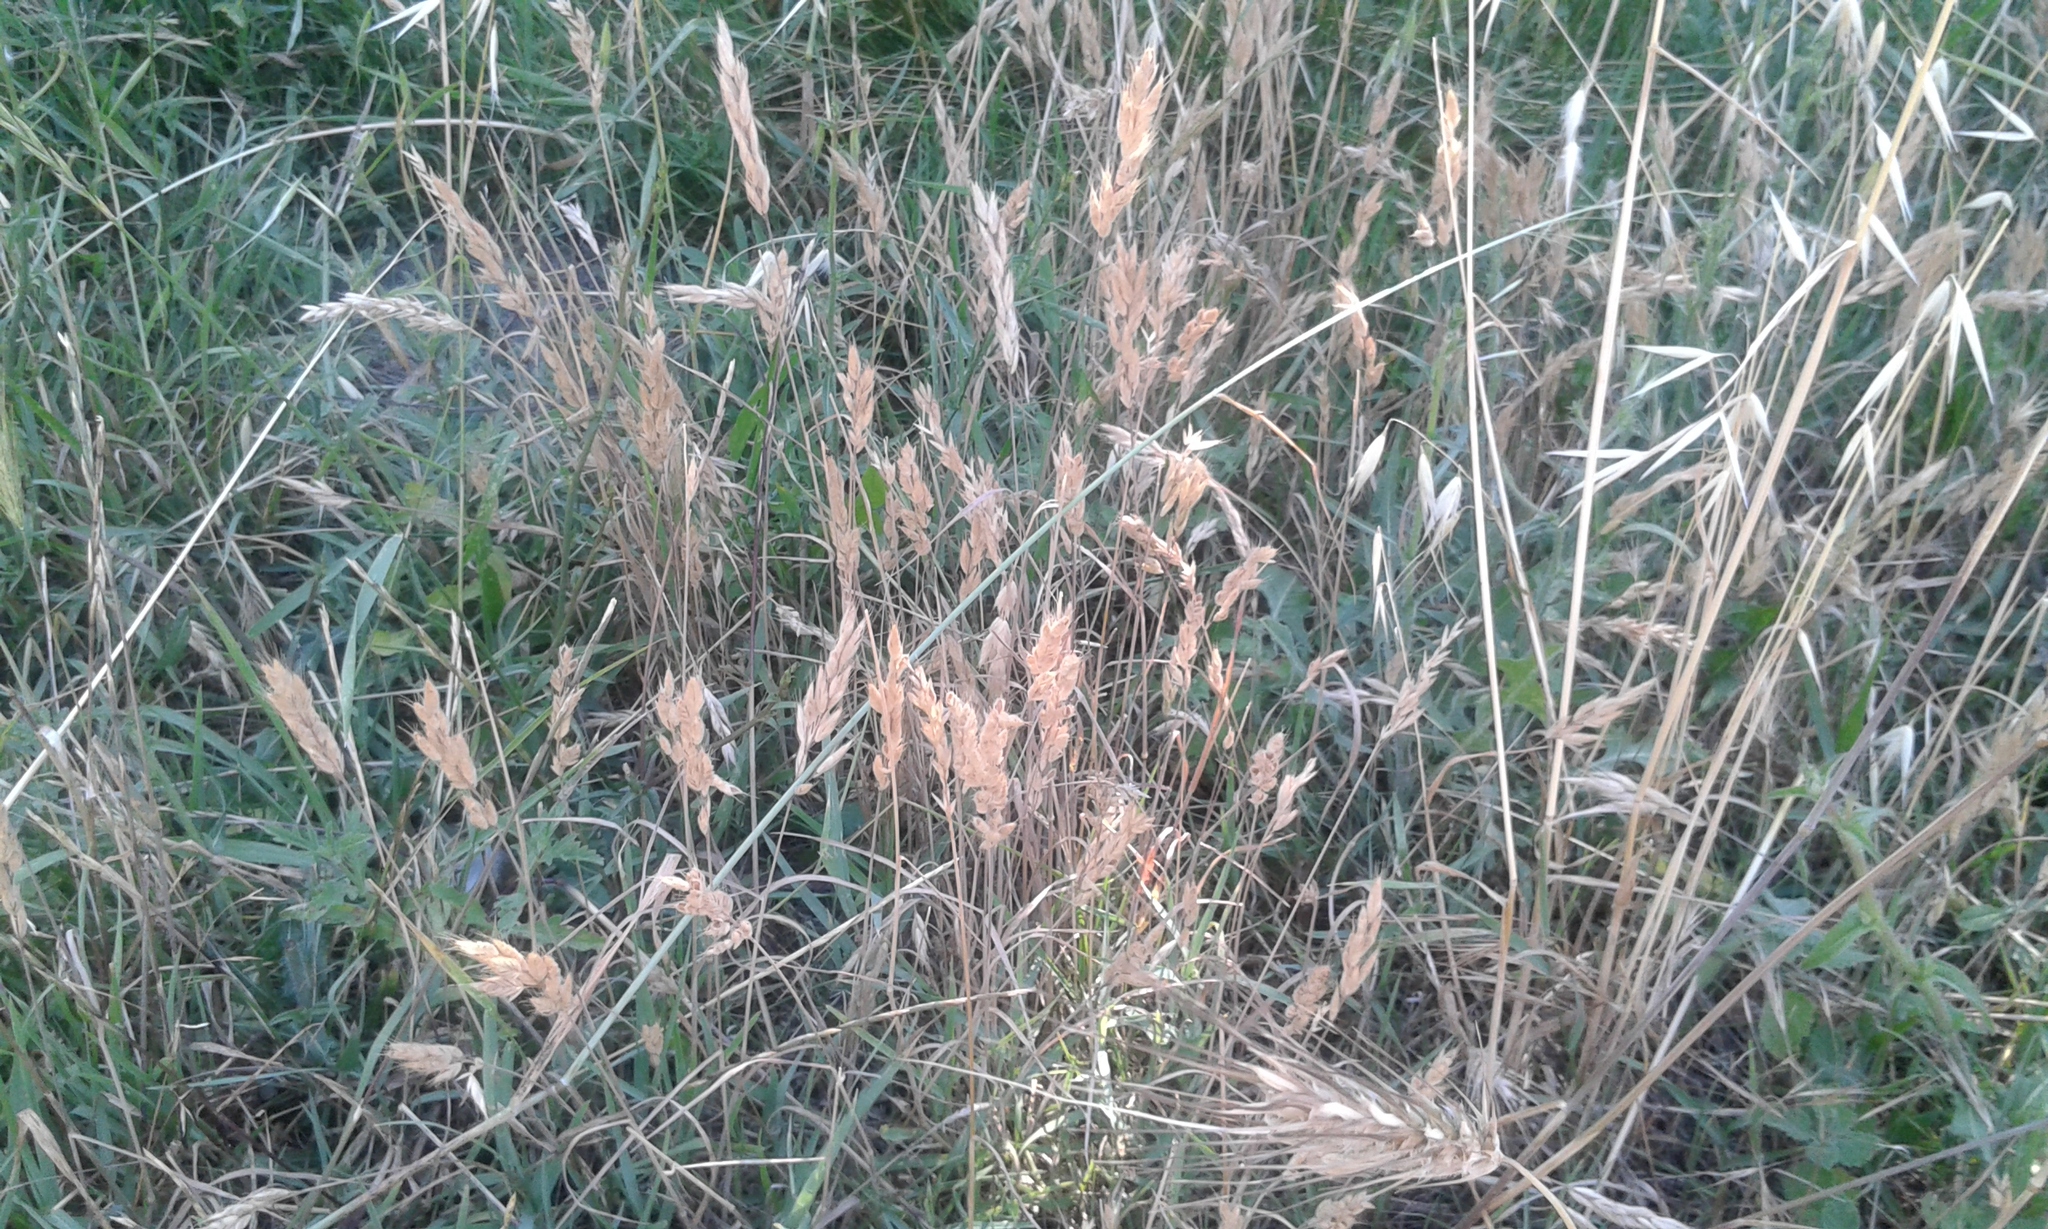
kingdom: Plantae
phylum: Tracheophyta
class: Liliopsida
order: Poales
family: Poaceae
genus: Bromus
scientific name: Bromus secalinus
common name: Rye brome
